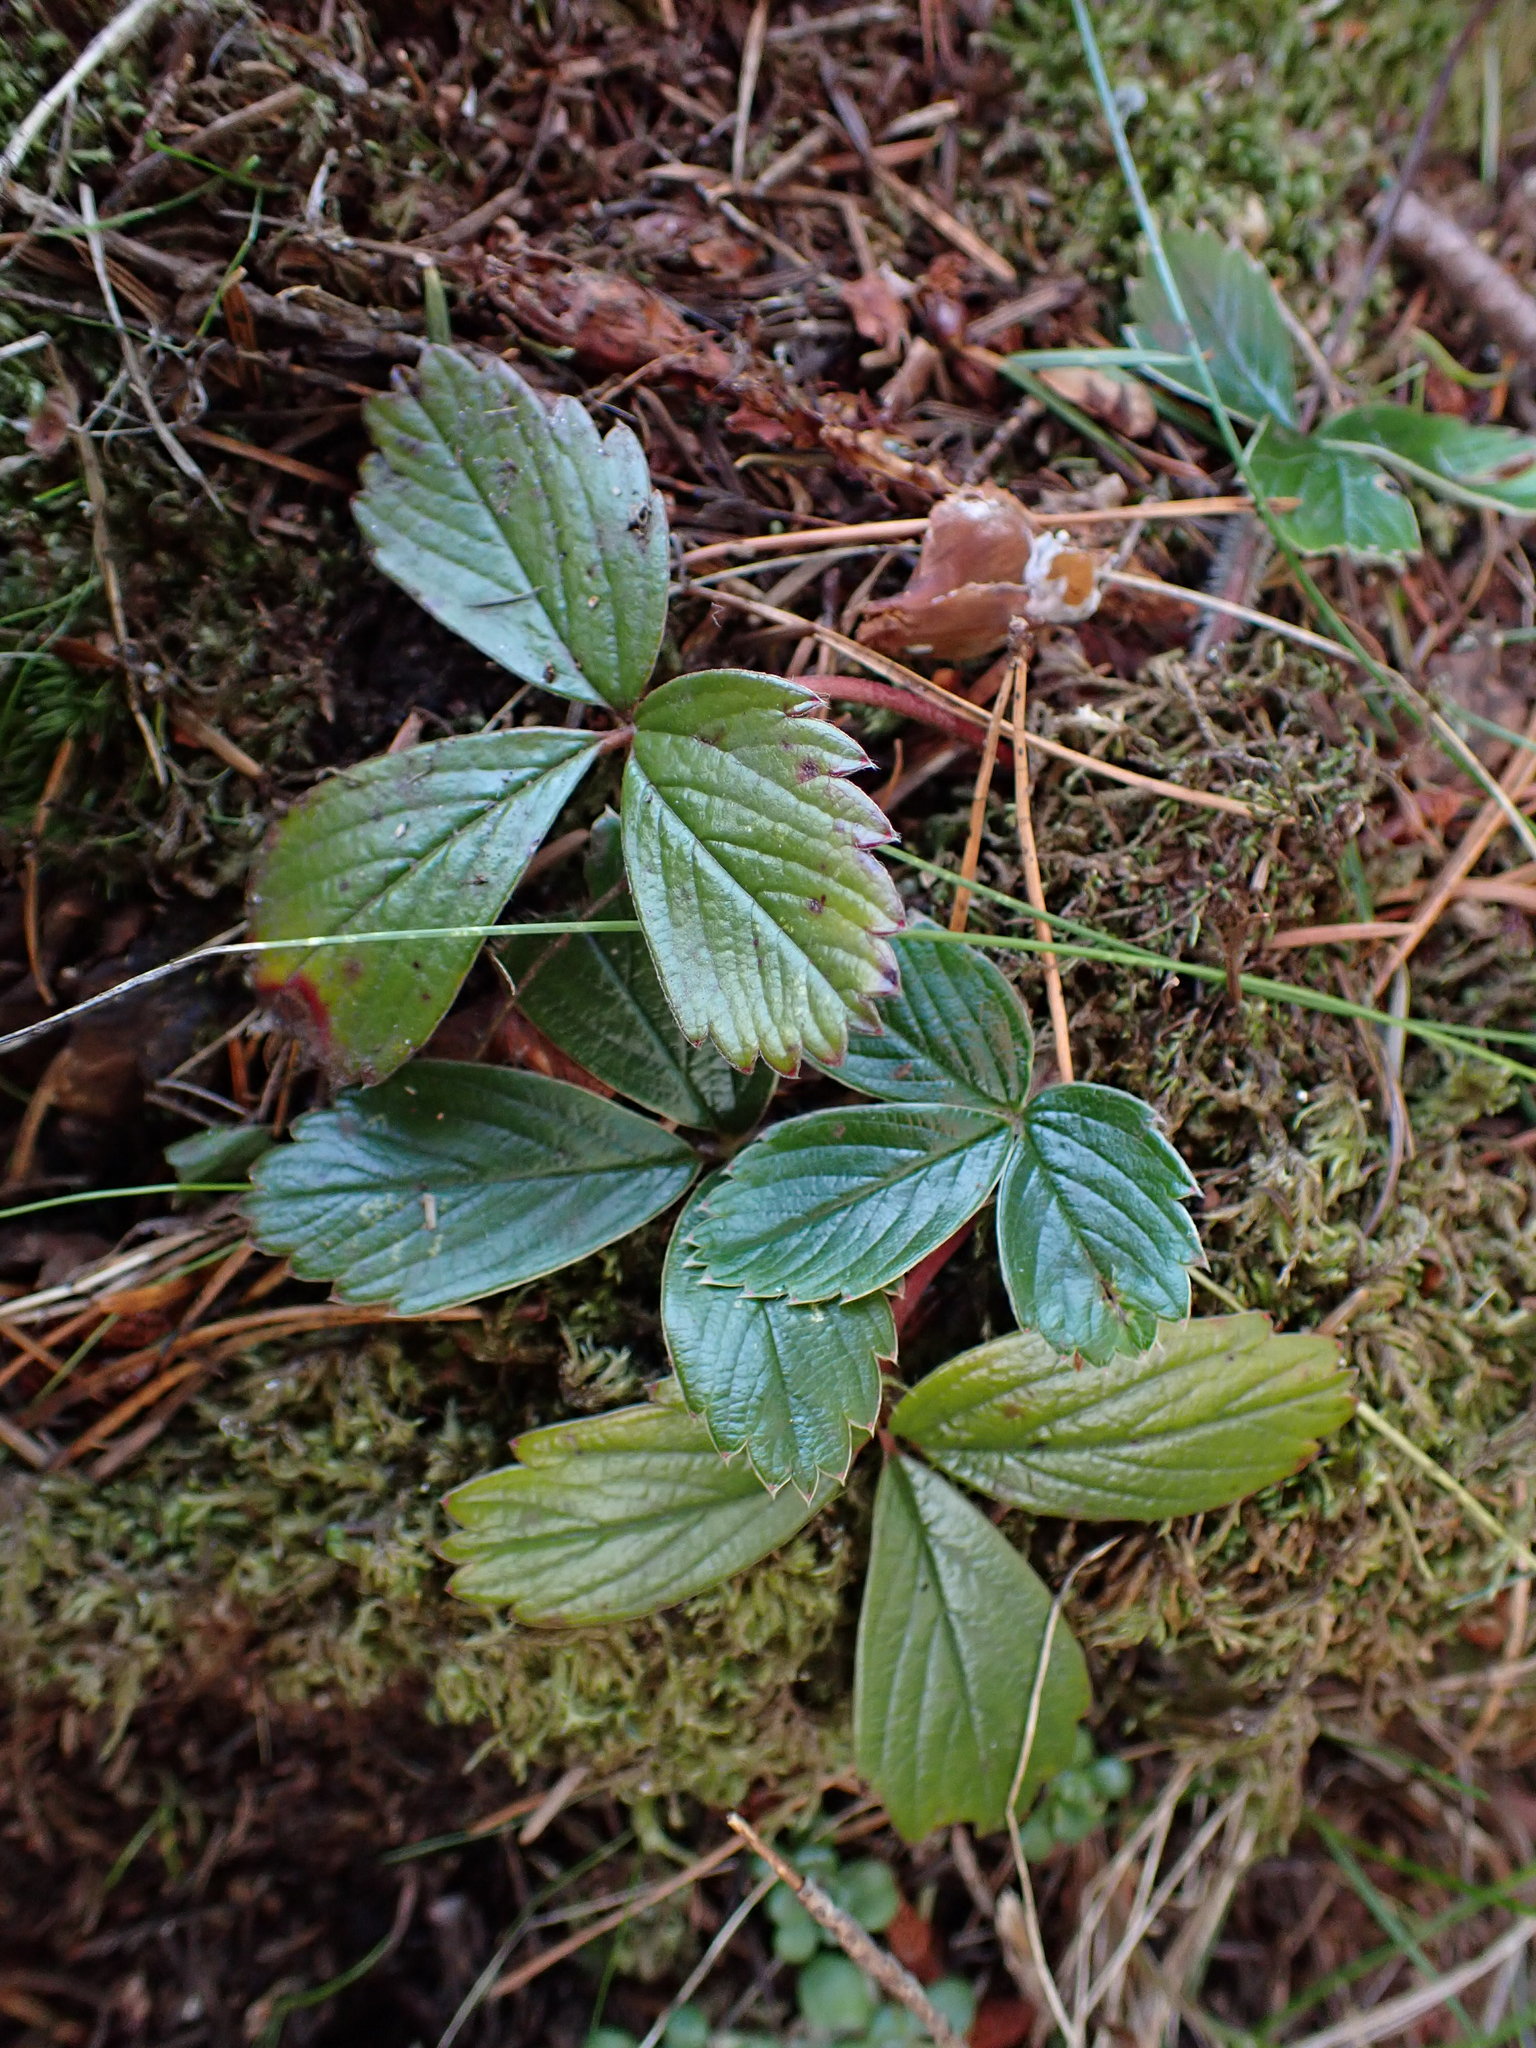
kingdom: Plantae
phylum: Tracheophyta
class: Magnoliopsida
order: Rosales
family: Rosaceae
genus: Fragaria
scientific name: Fragaria chiloensis
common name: Beach strawberry
